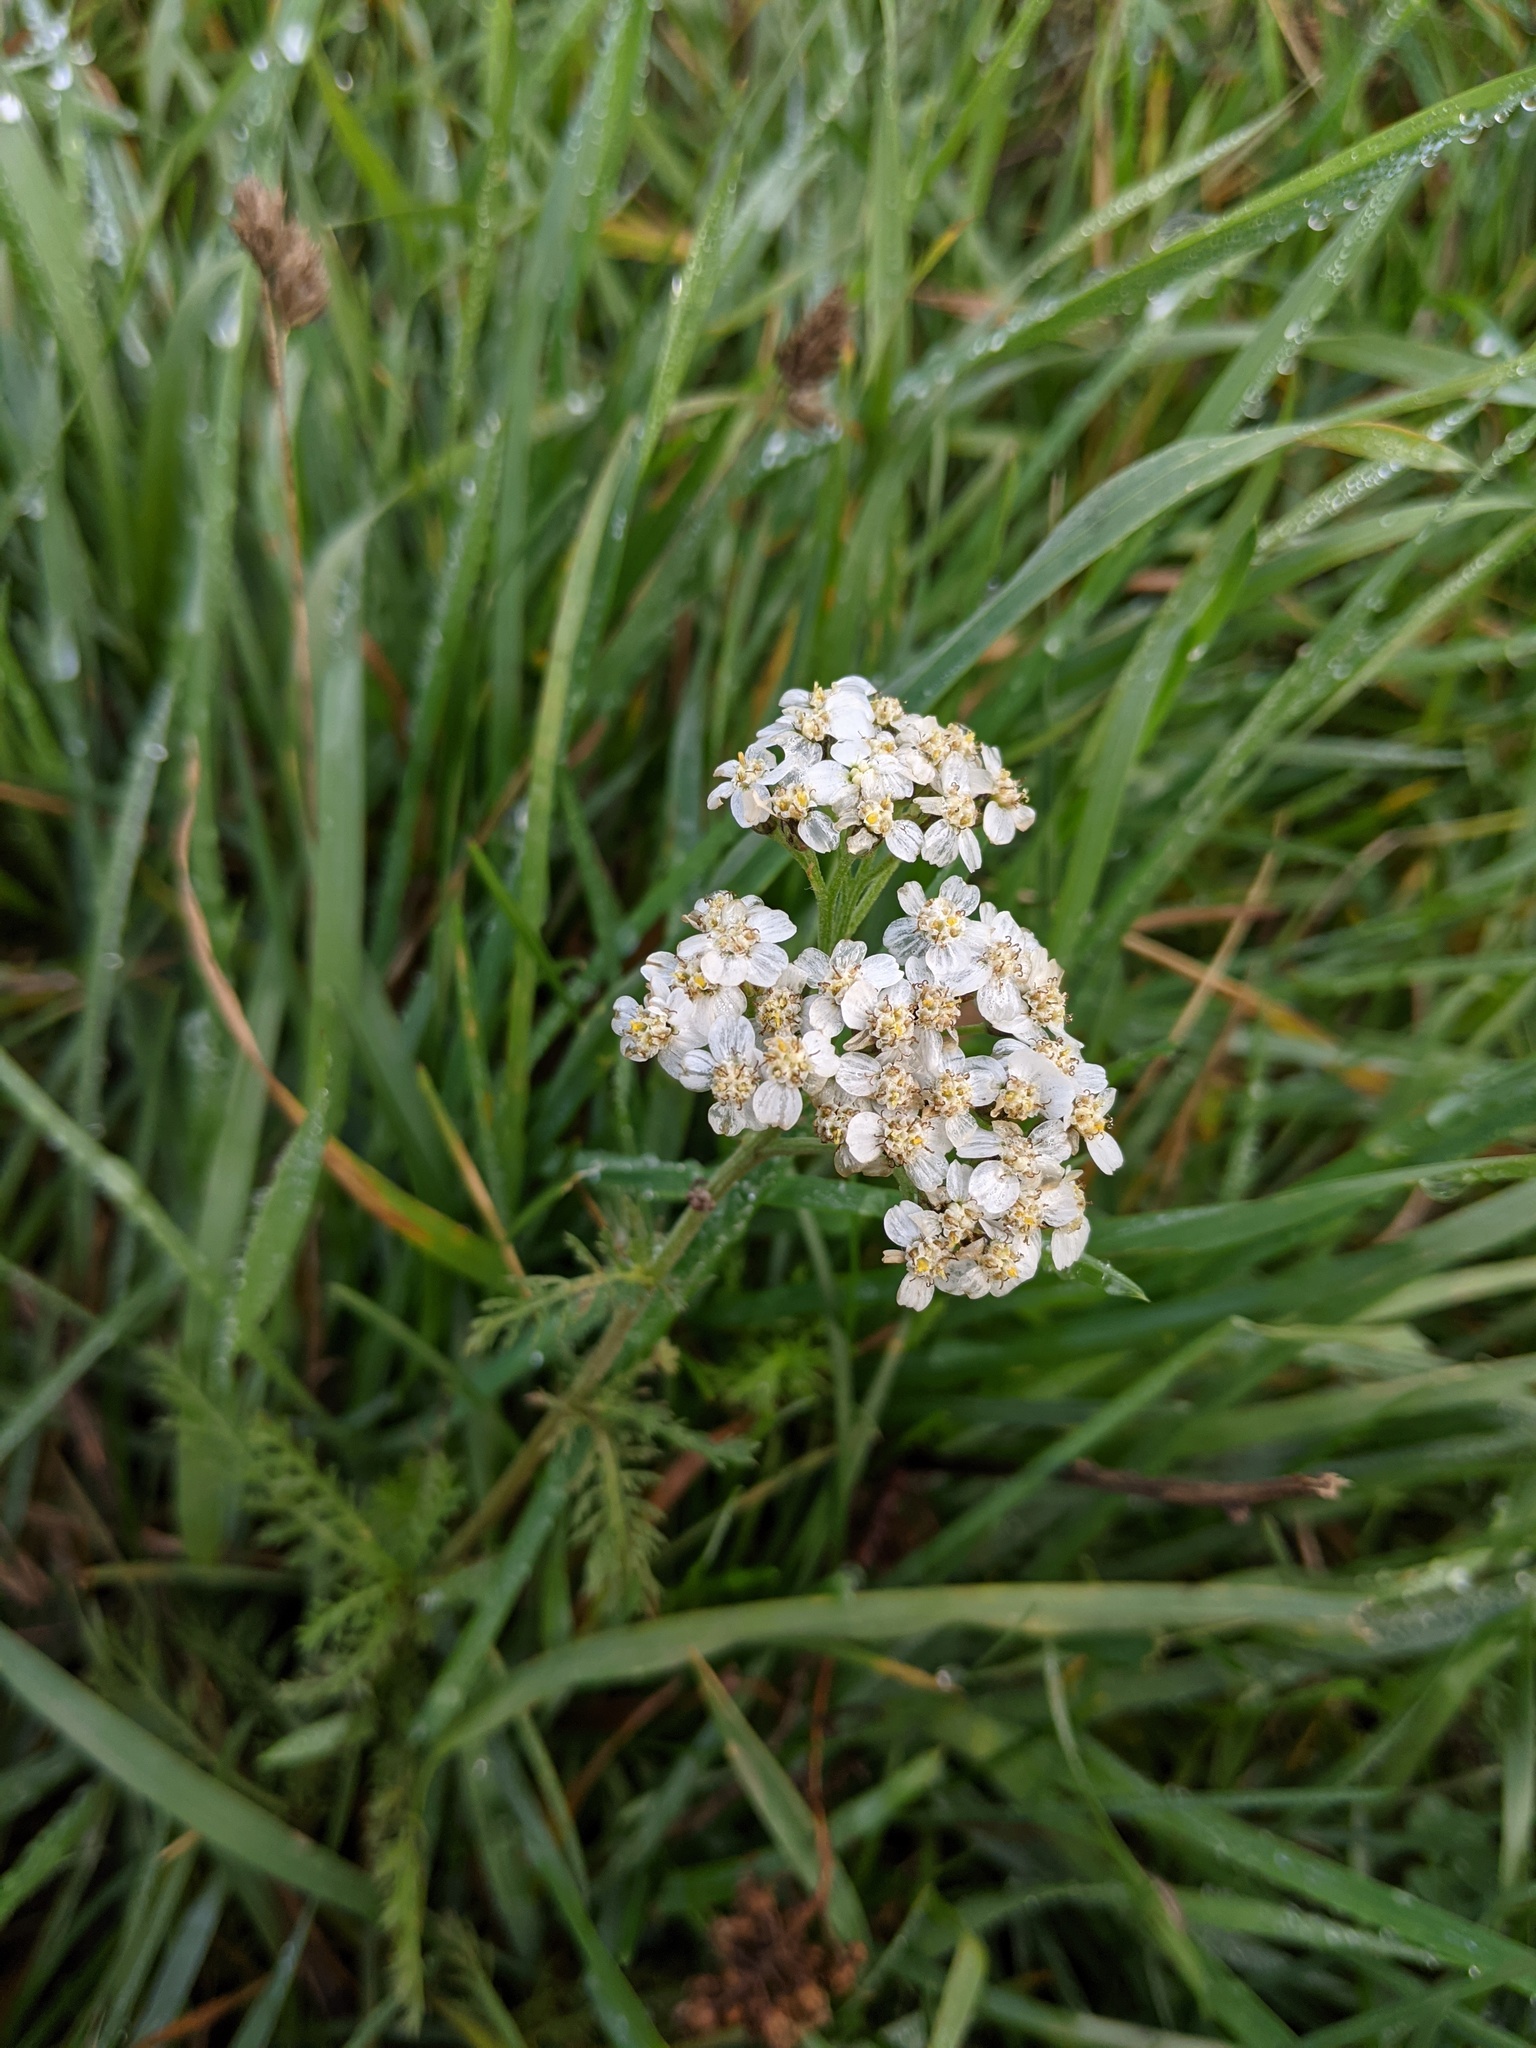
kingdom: Plantae
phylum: Tracheophyta
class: Magnoliopsida
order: Asterales
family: Asteraceae
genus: Achillea
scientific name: Achillea millefolium
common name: Yarrow
